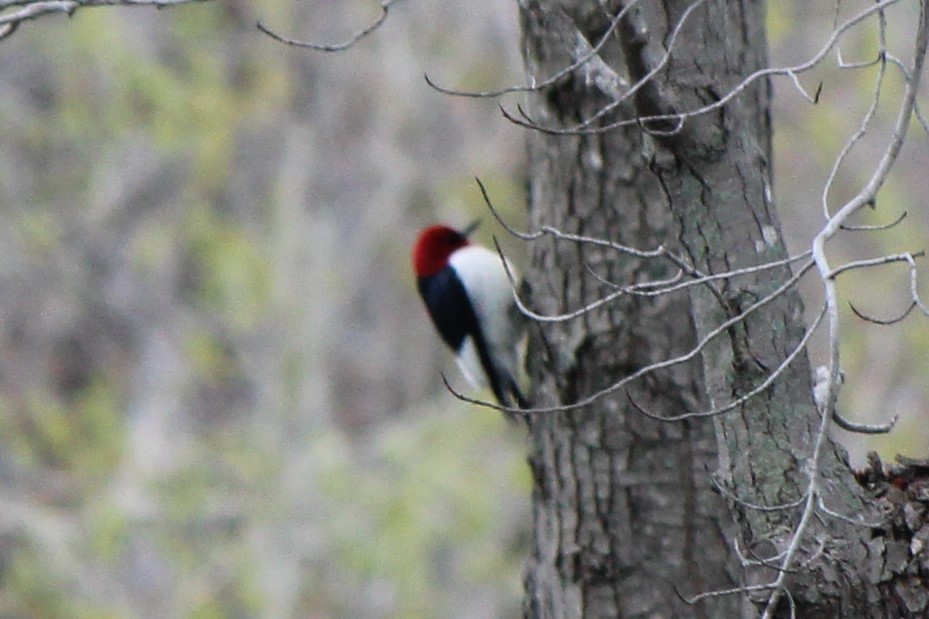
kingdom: Animalia
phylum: Chordata
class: Aves
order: Piciformes
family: Picidae
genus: Melanerpes
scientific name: Melanerpes erythrocephalus
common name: Red-headed woodpecker
